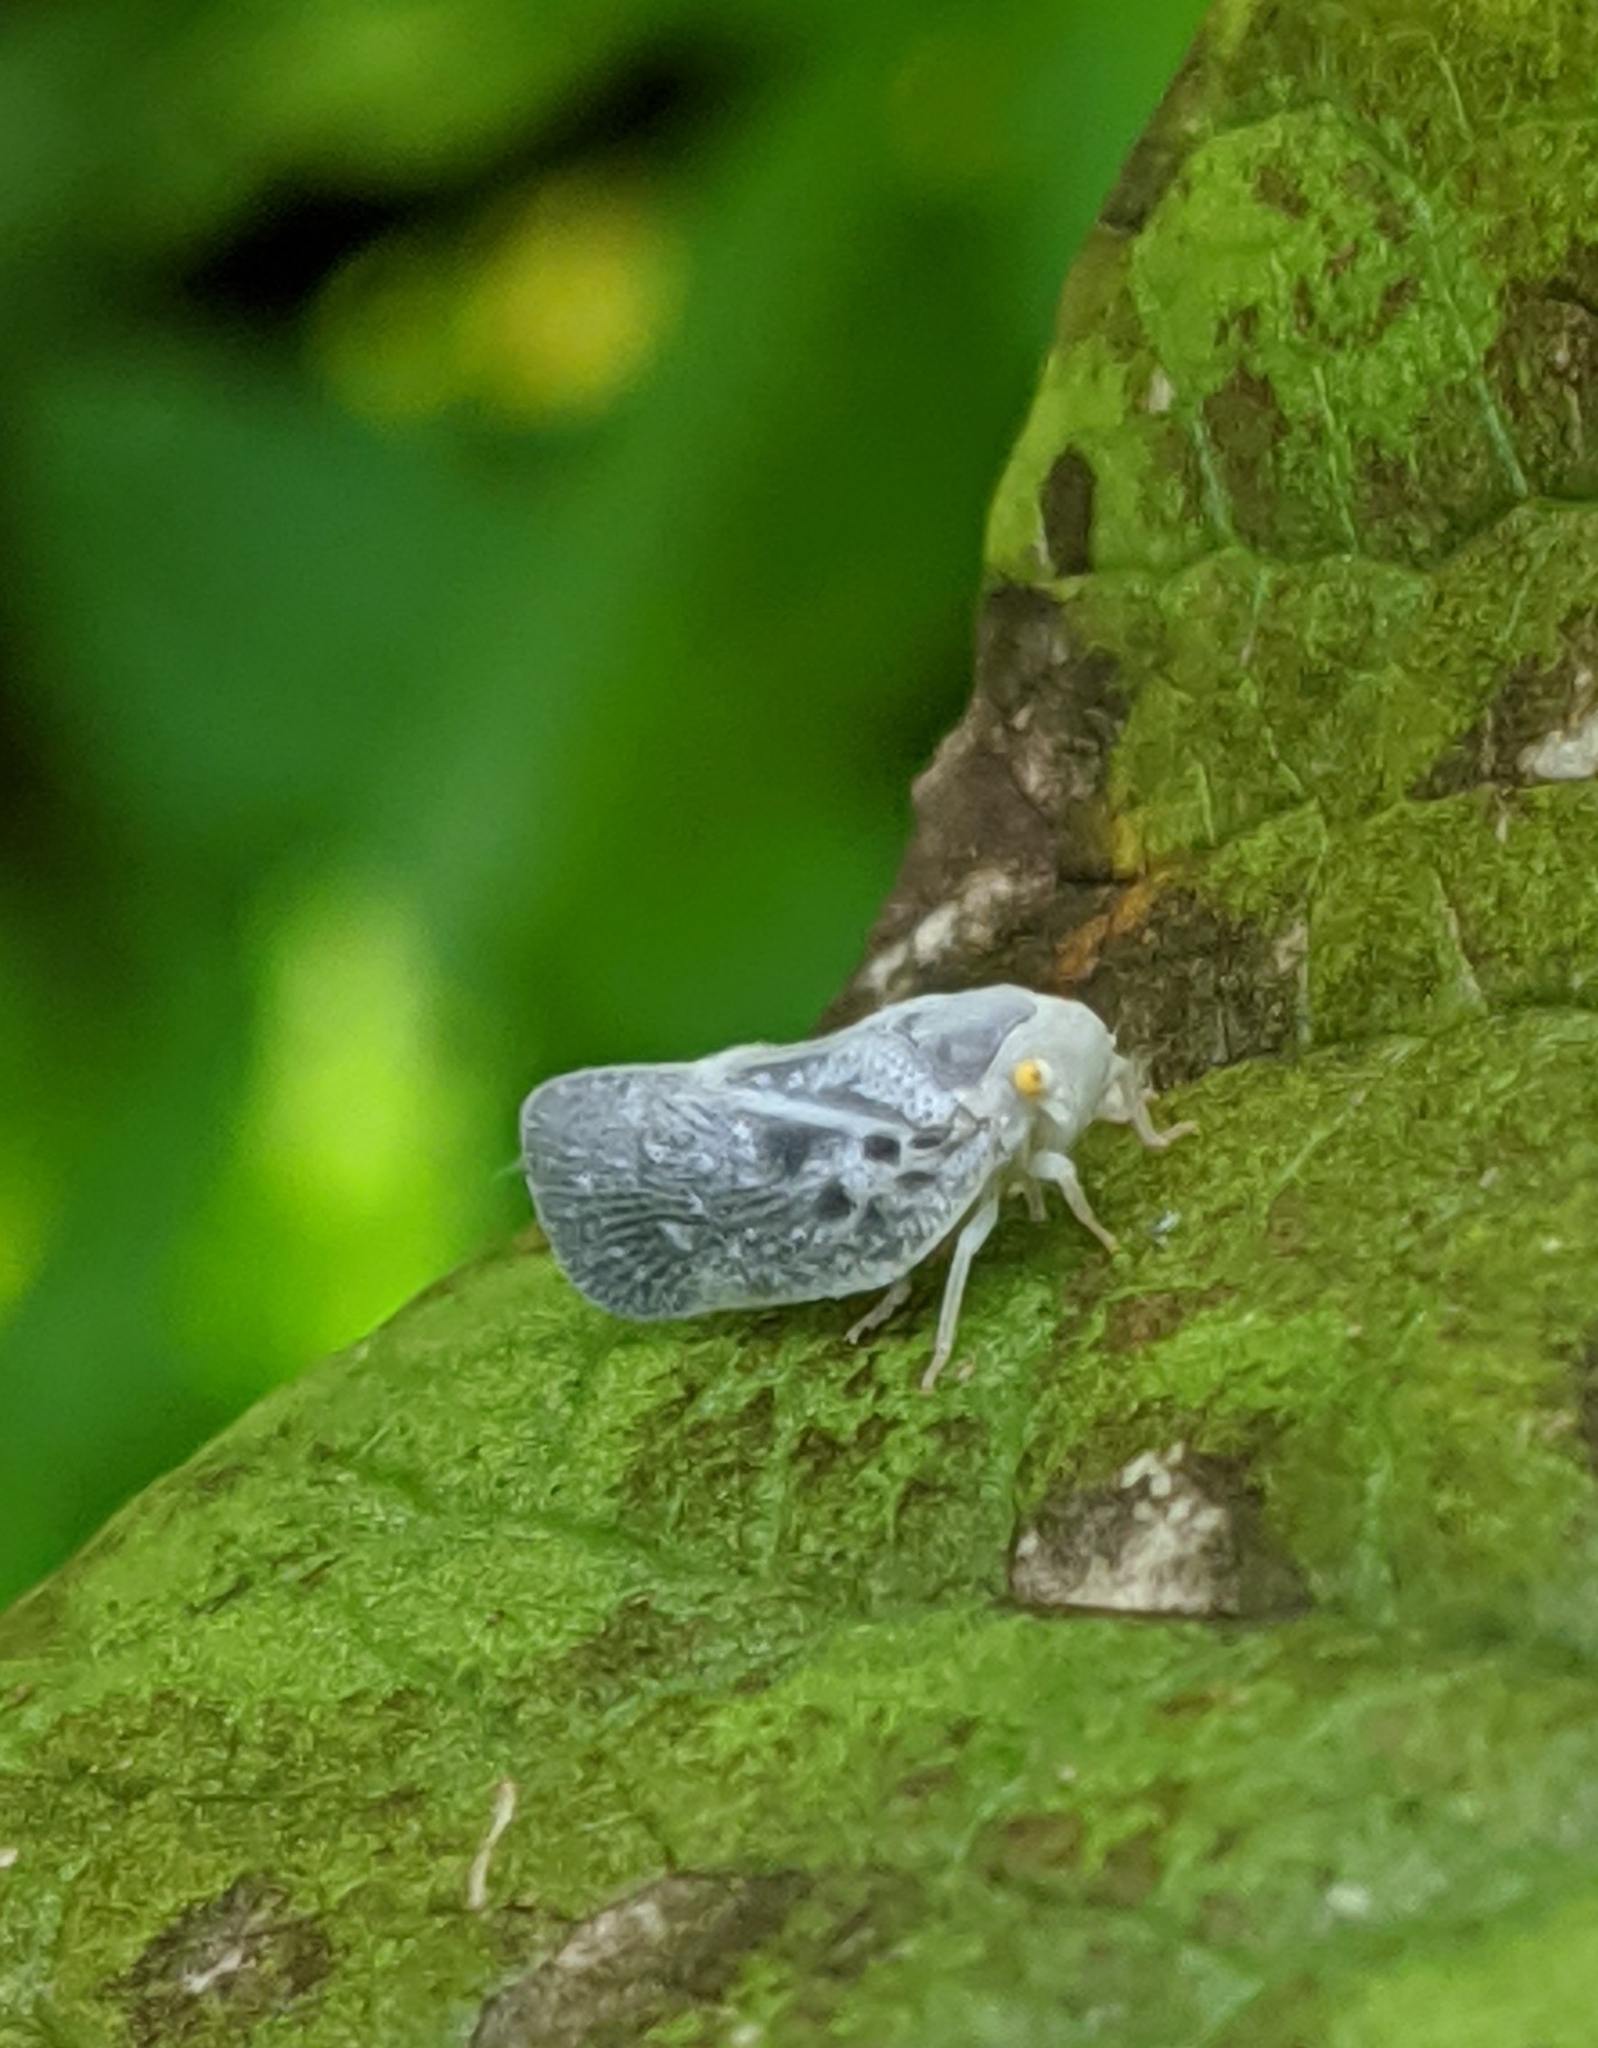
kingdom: Animalia
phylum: Arthropoda
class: Insecta
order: Hemiptera
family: Flatidae
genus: Metcalfa
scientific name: Metcalfa pruinosa
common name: Citrus flatid planthopper
